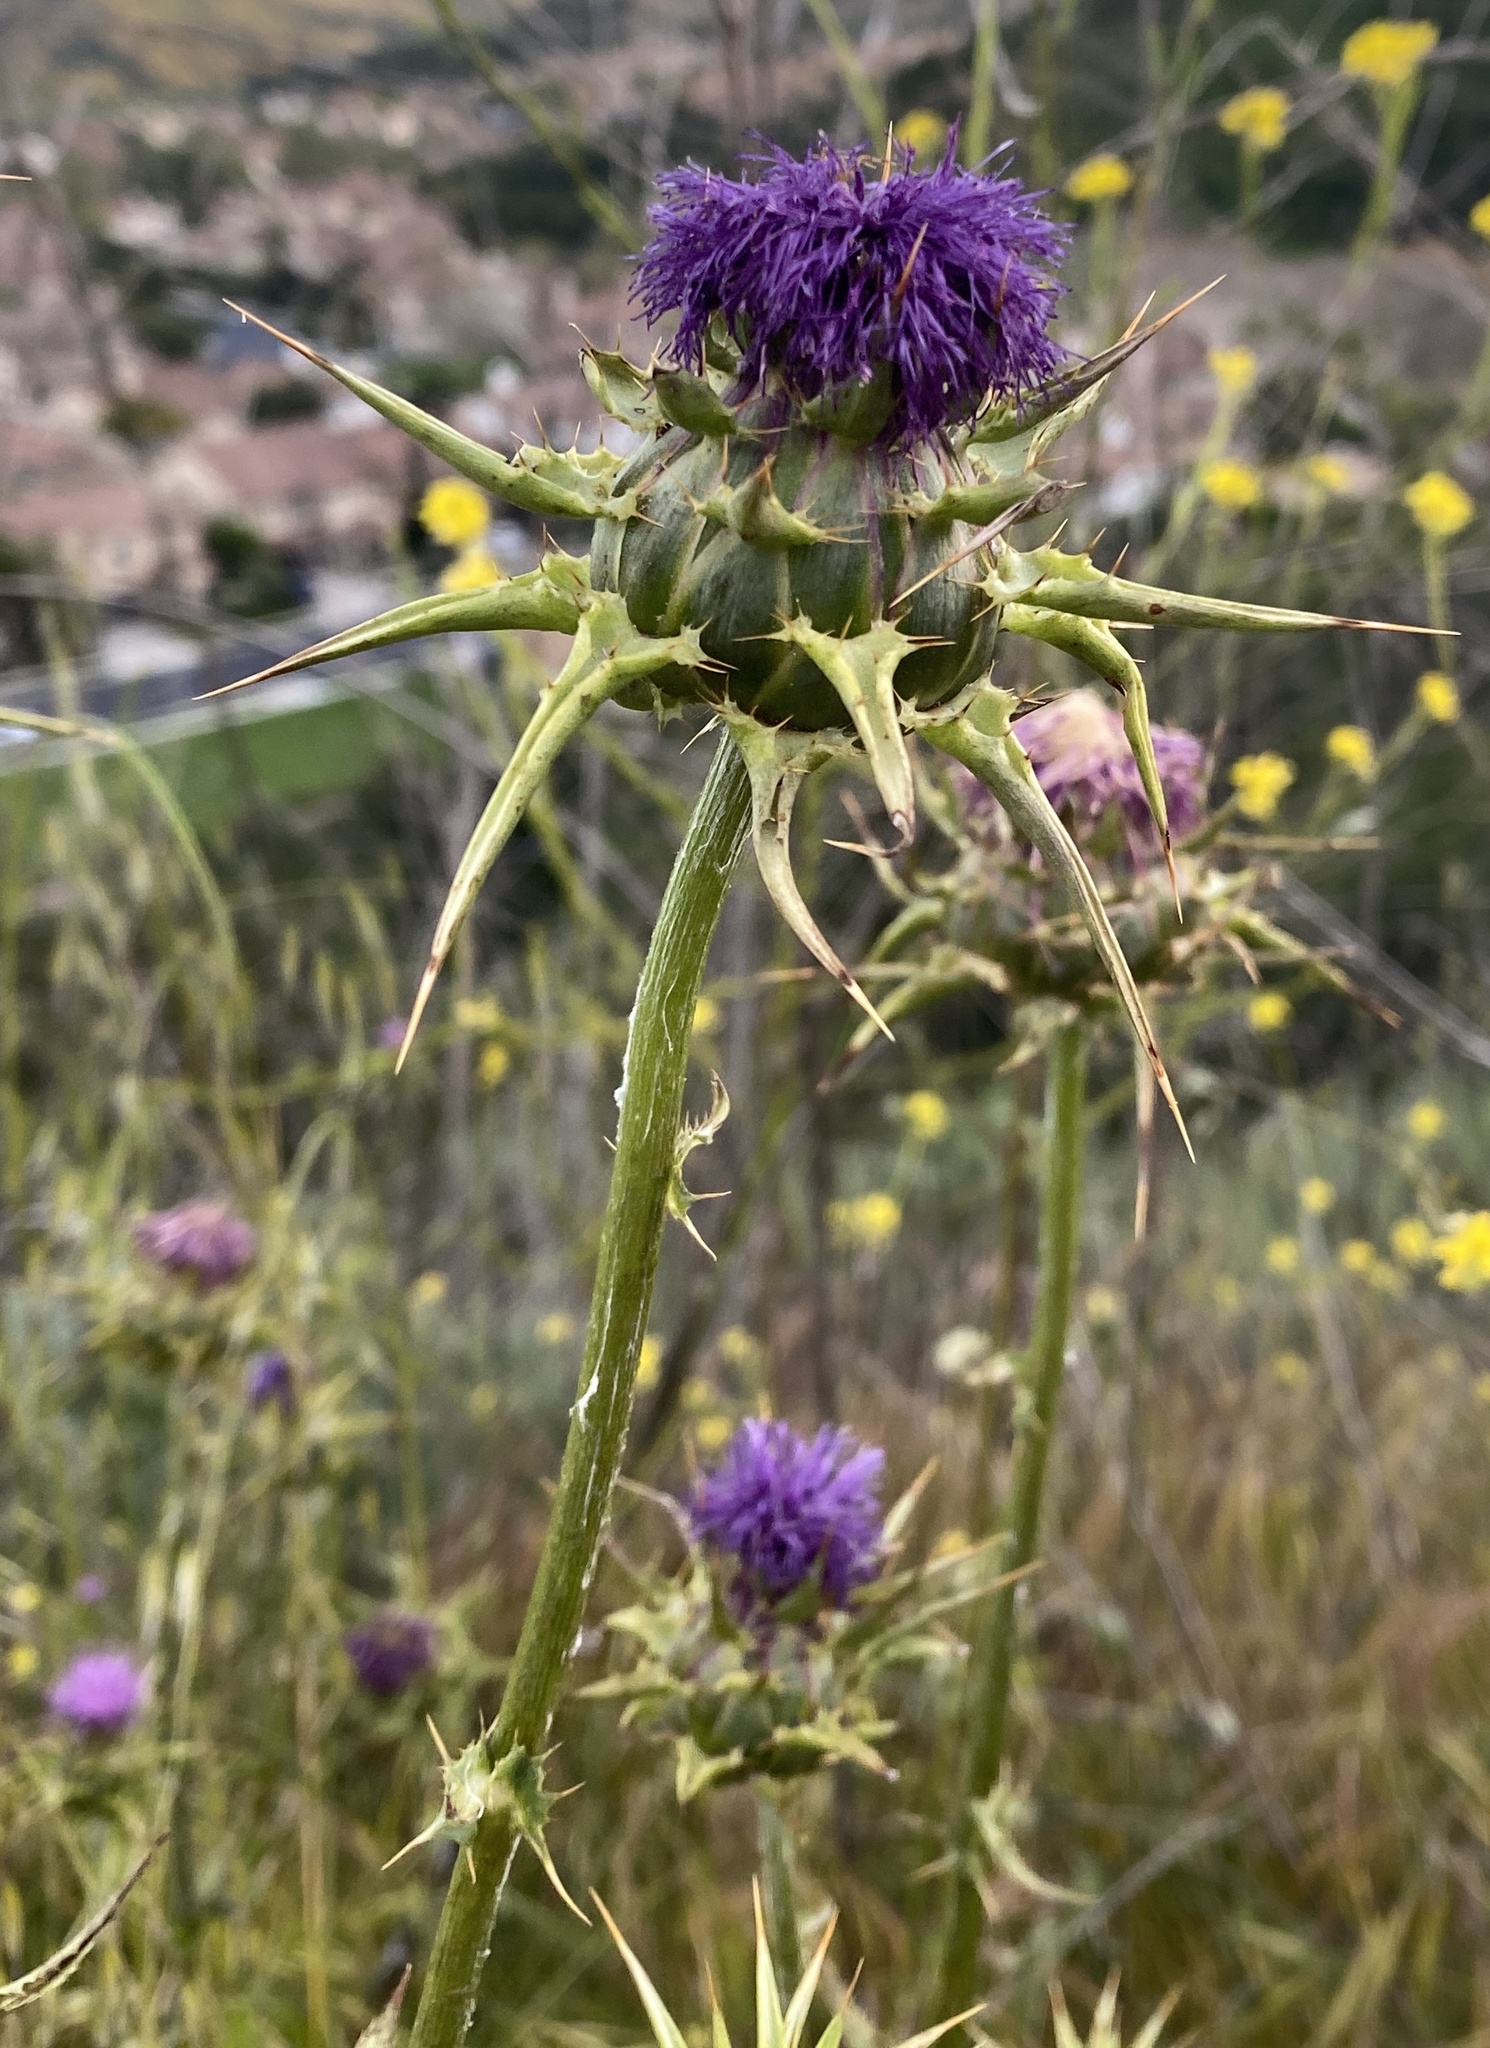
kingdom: Plantae
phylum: Tracheophyta
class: Magnoliopsida
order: Asterales
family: Asteraceae
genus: Silybum
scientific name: Silybum marianum
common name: Milk thistle
